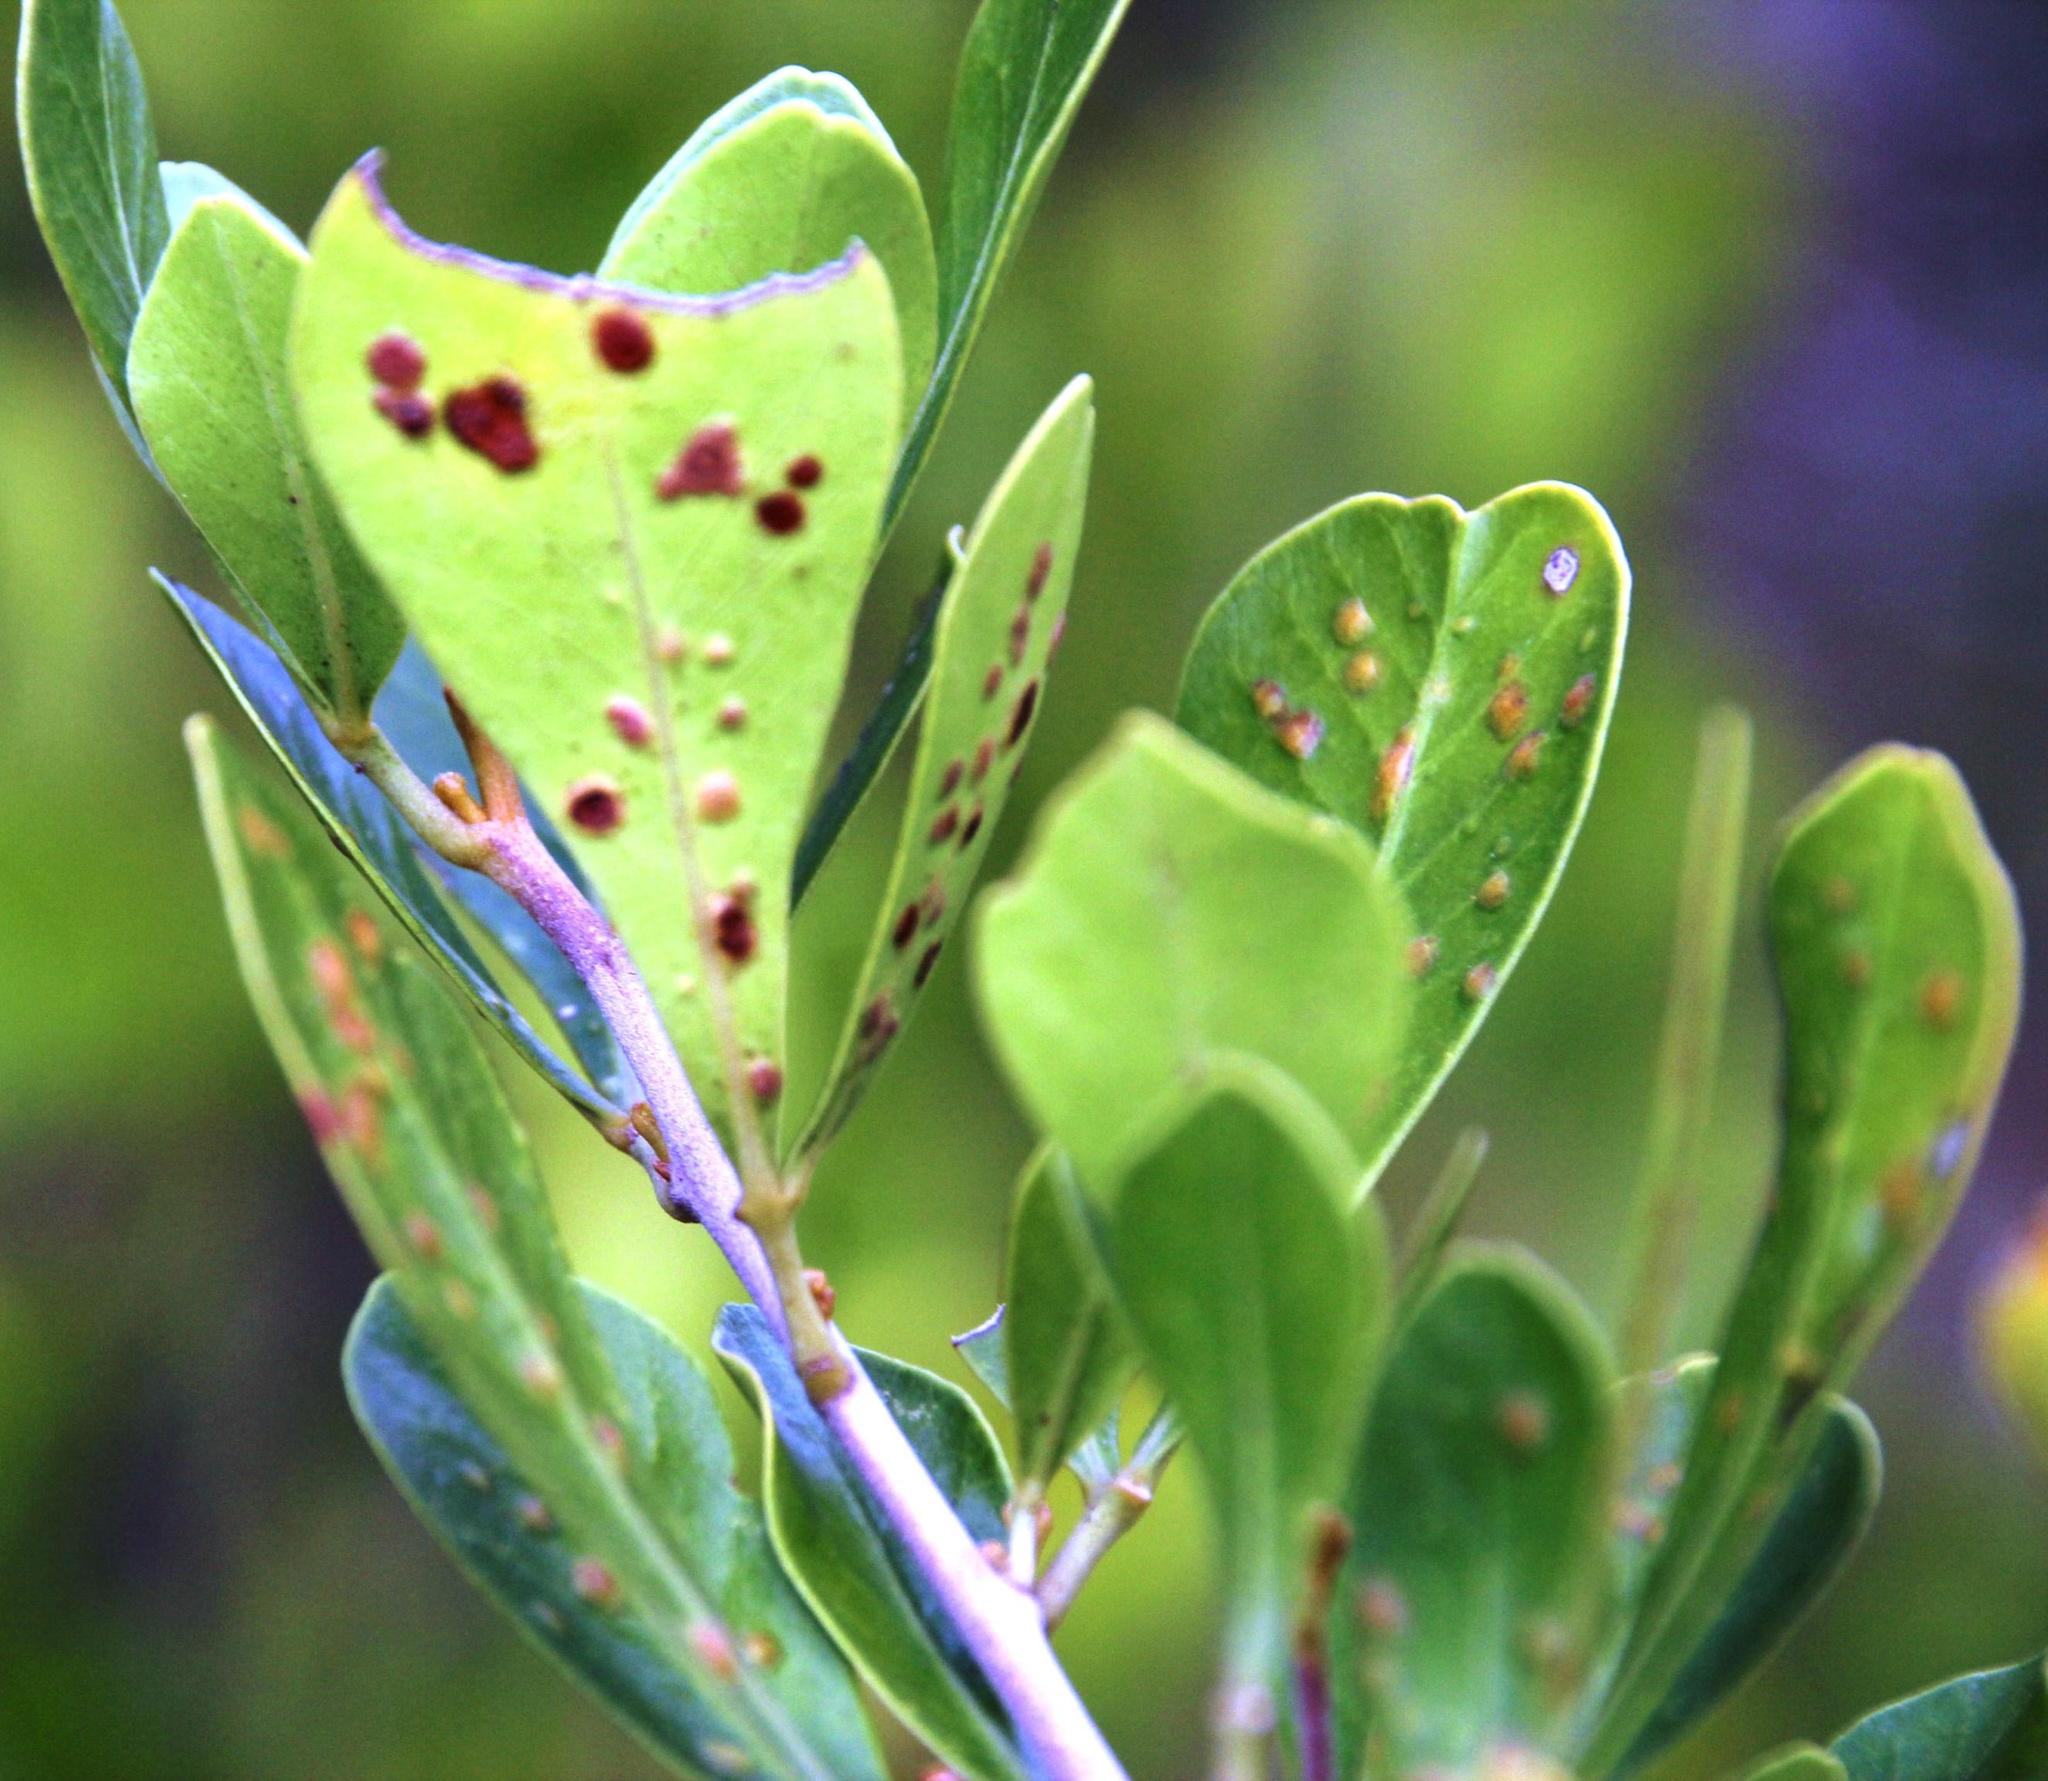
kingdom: Plantae
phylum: Tracheophyta
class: Magnoliopsida
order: Sapindales
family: Anacardiaceae
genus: Searsia
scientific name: Searsia lucida
